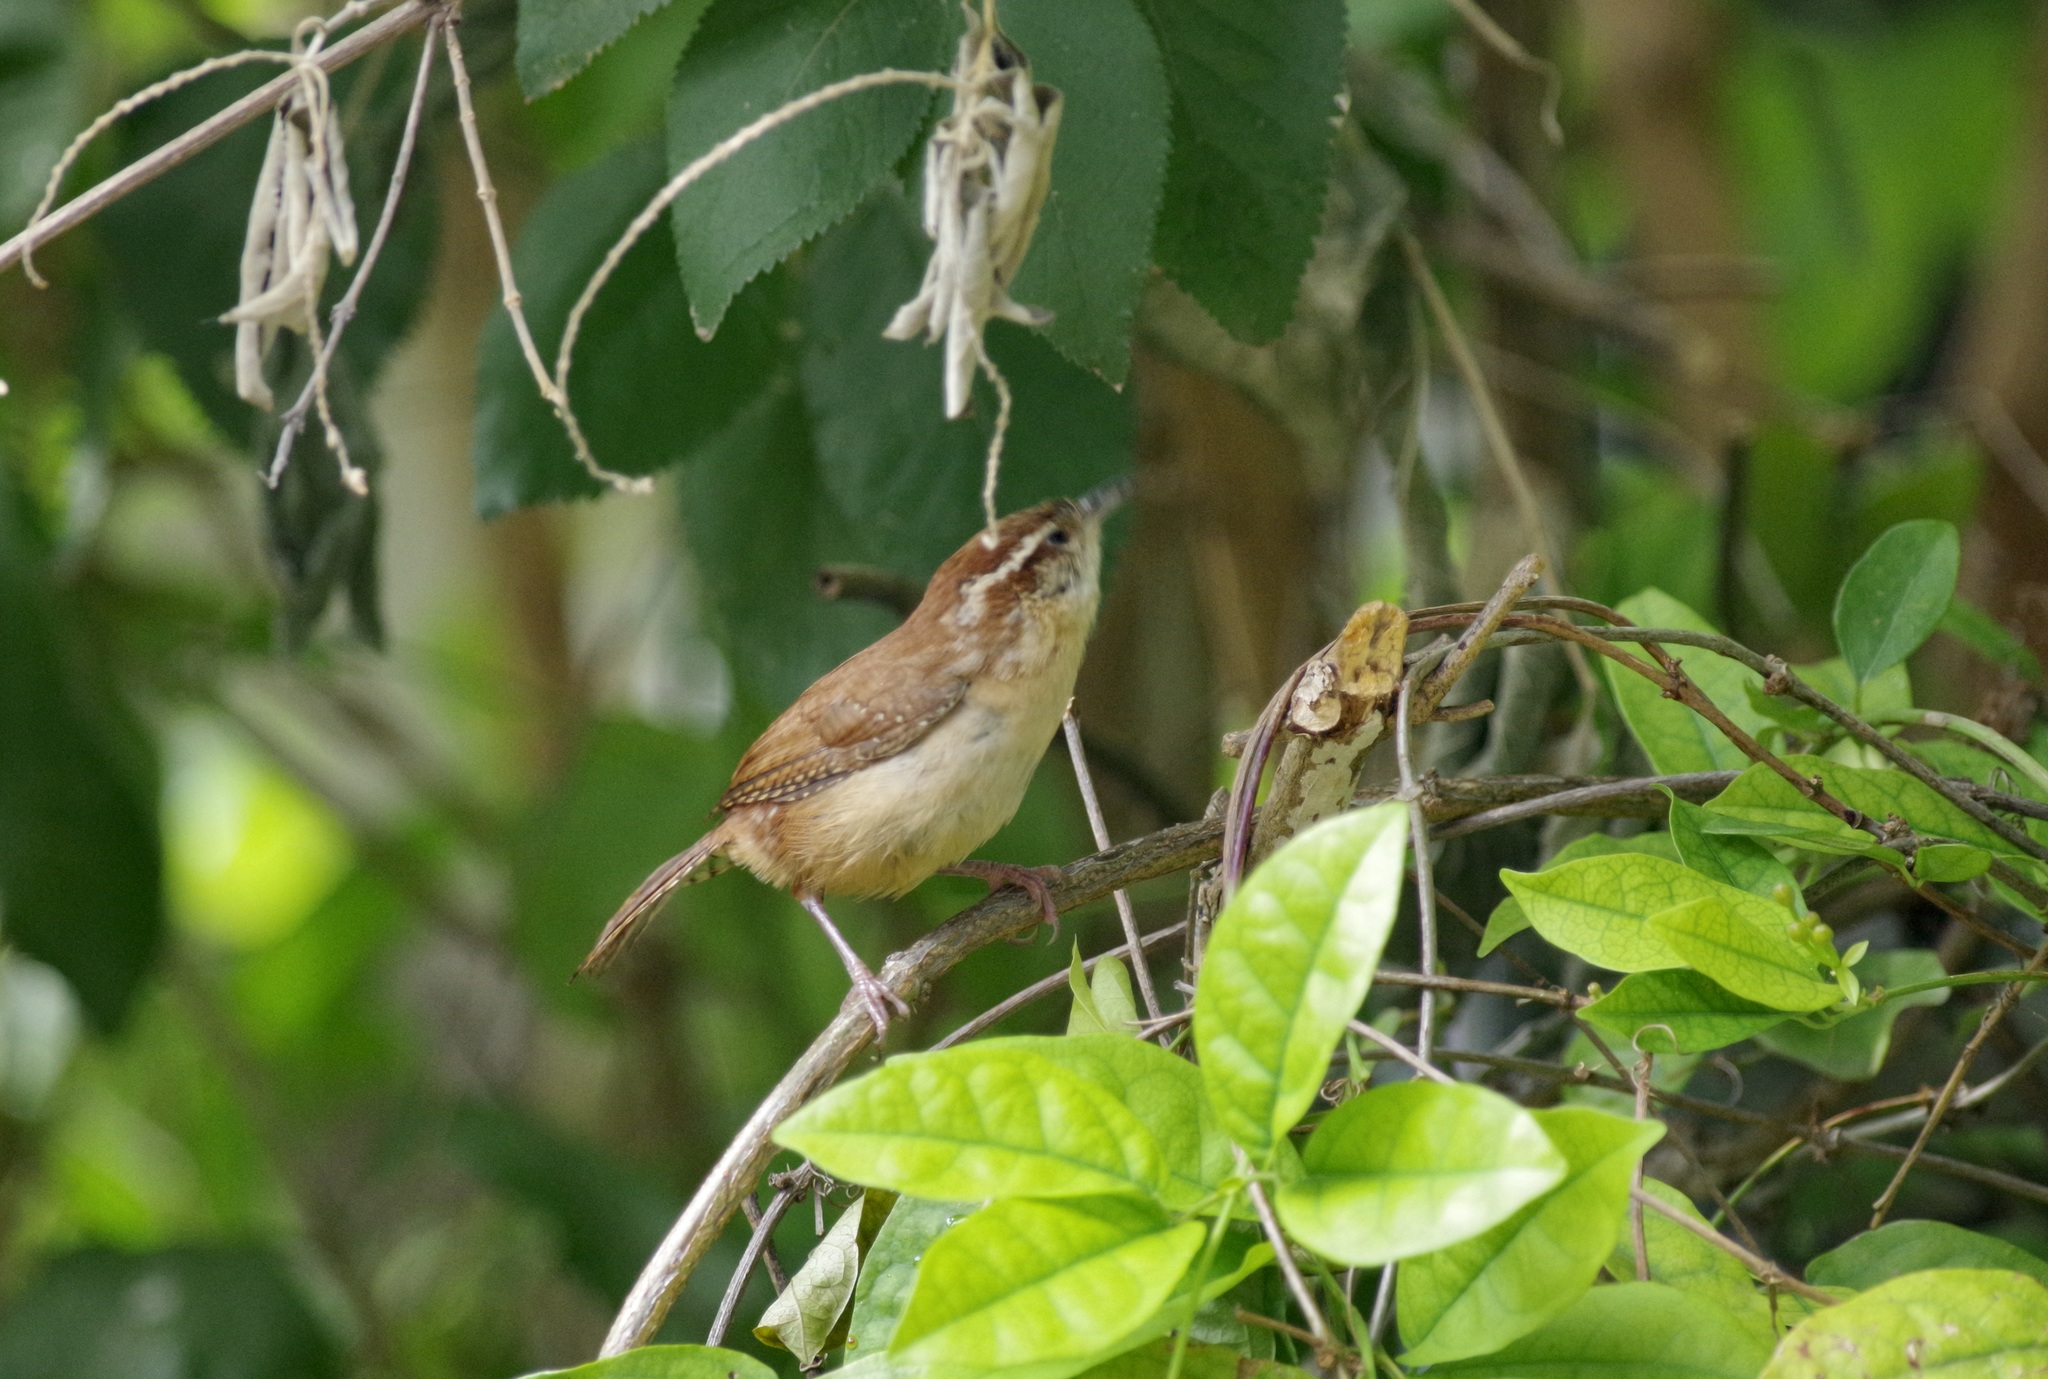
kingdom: Animalia
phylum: Chordata
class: Aves
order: Passeriformes
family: Troglodytidae
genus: Thryothorus
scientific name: Thryothorus ludovicianus
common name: Carolina wren
